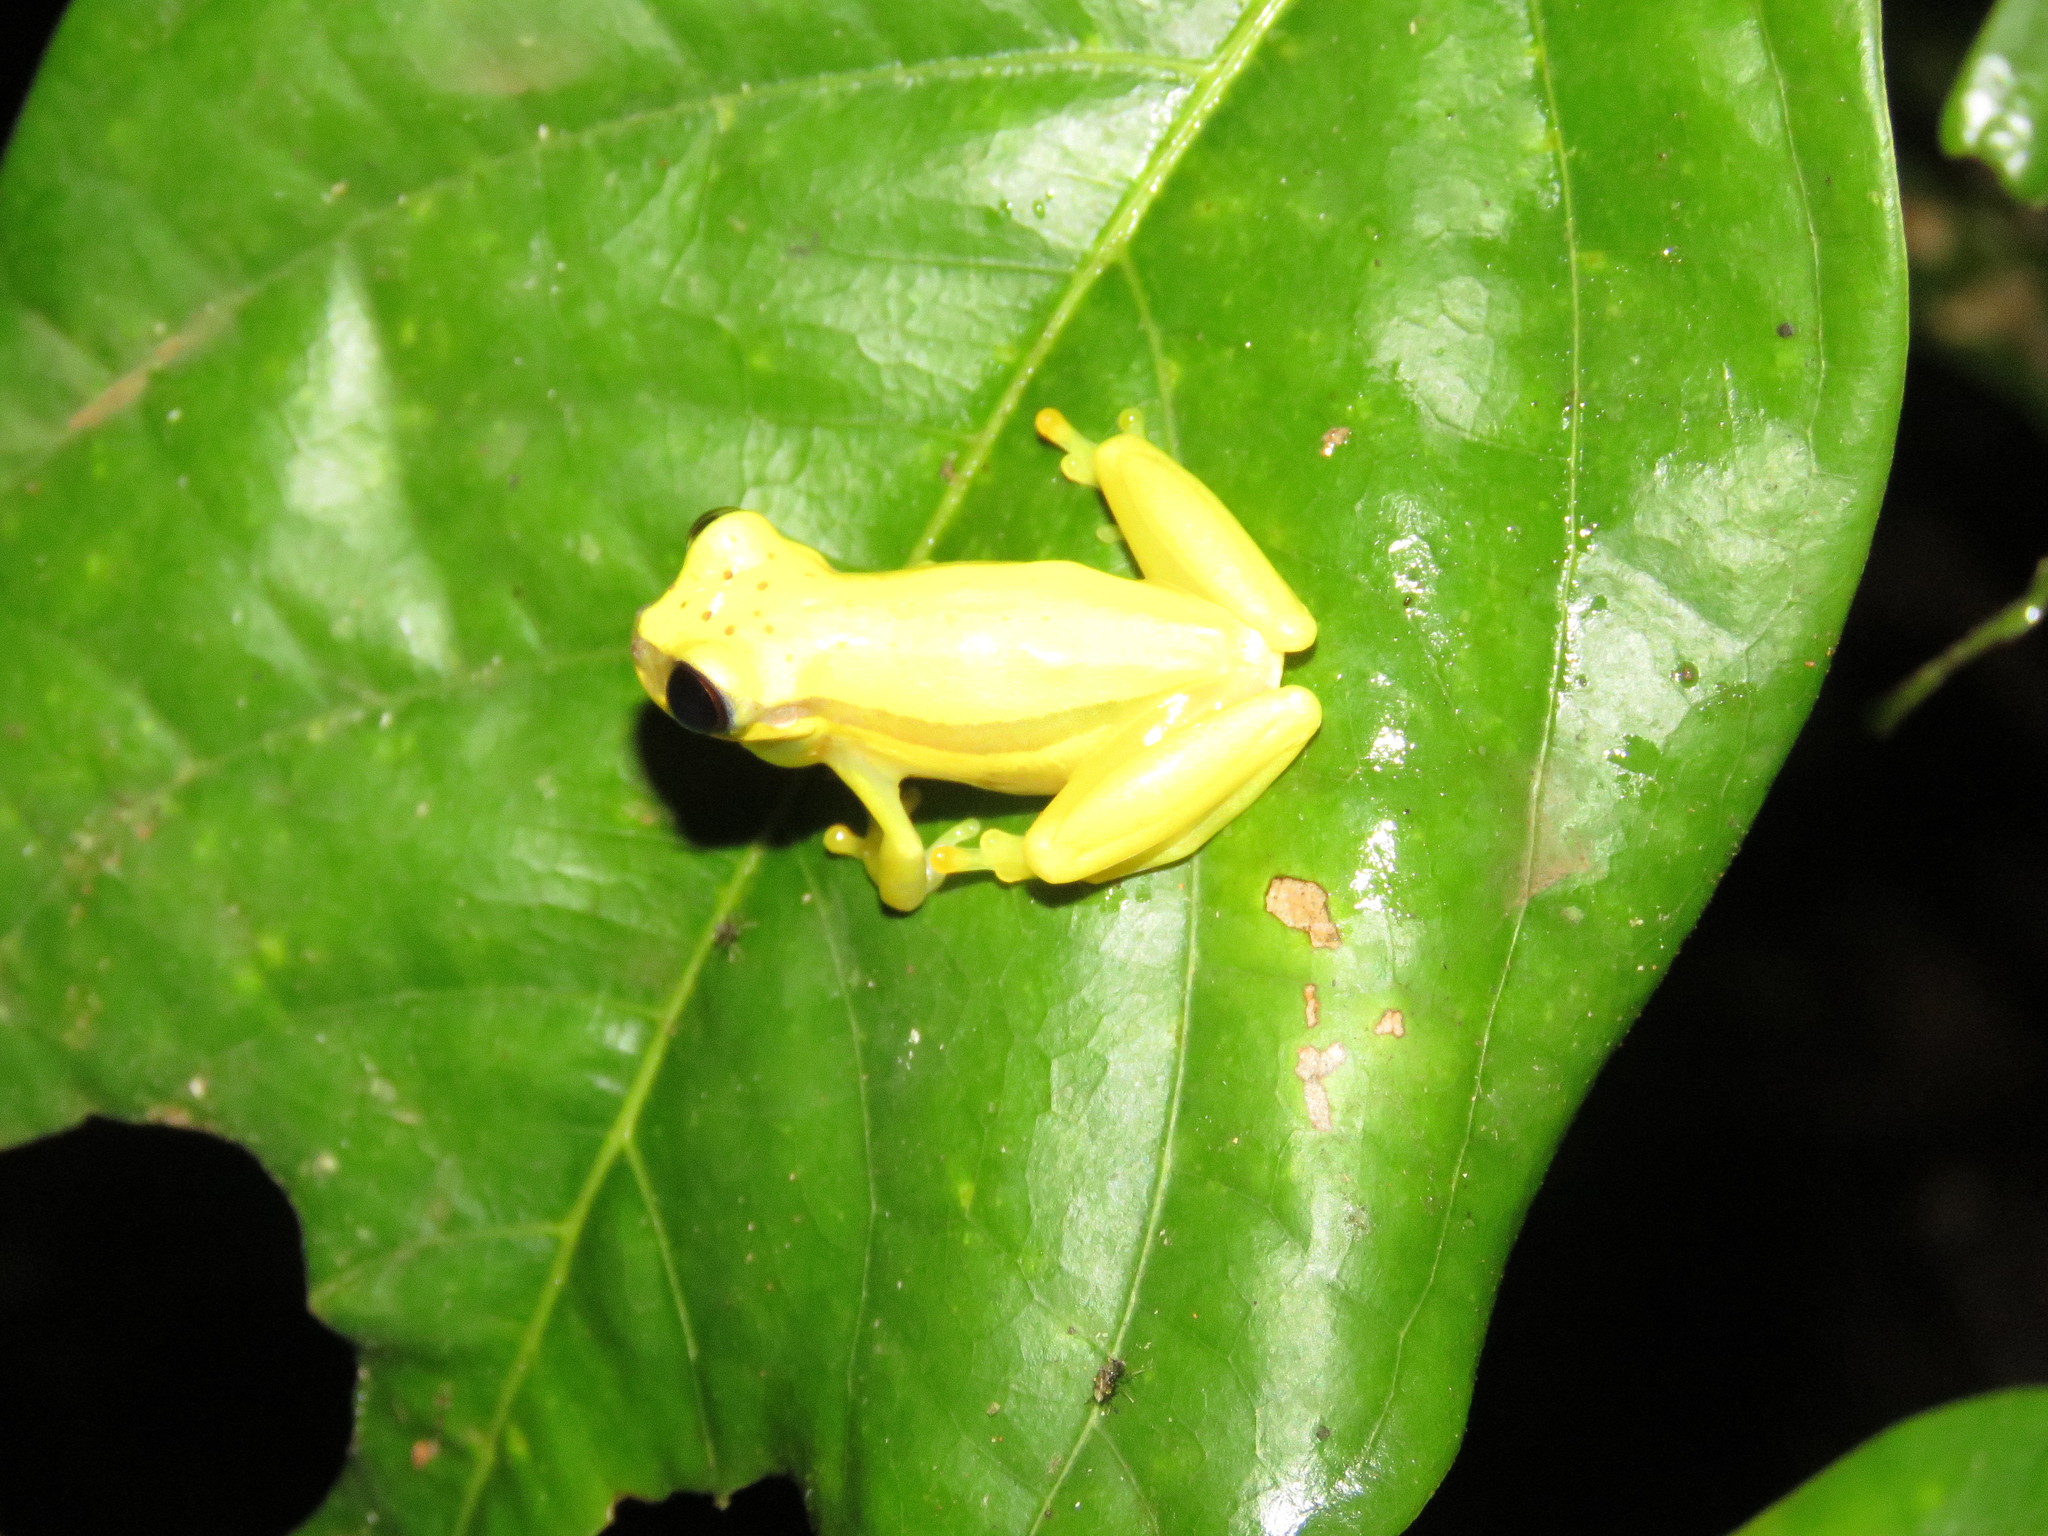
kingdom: Animalia
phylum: Chordata
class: Amphibia
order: Anura
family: Hylidae
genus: Dendropsophus
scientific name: Dendropsophus rhodopeplus
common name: Red-skirted treefrog
